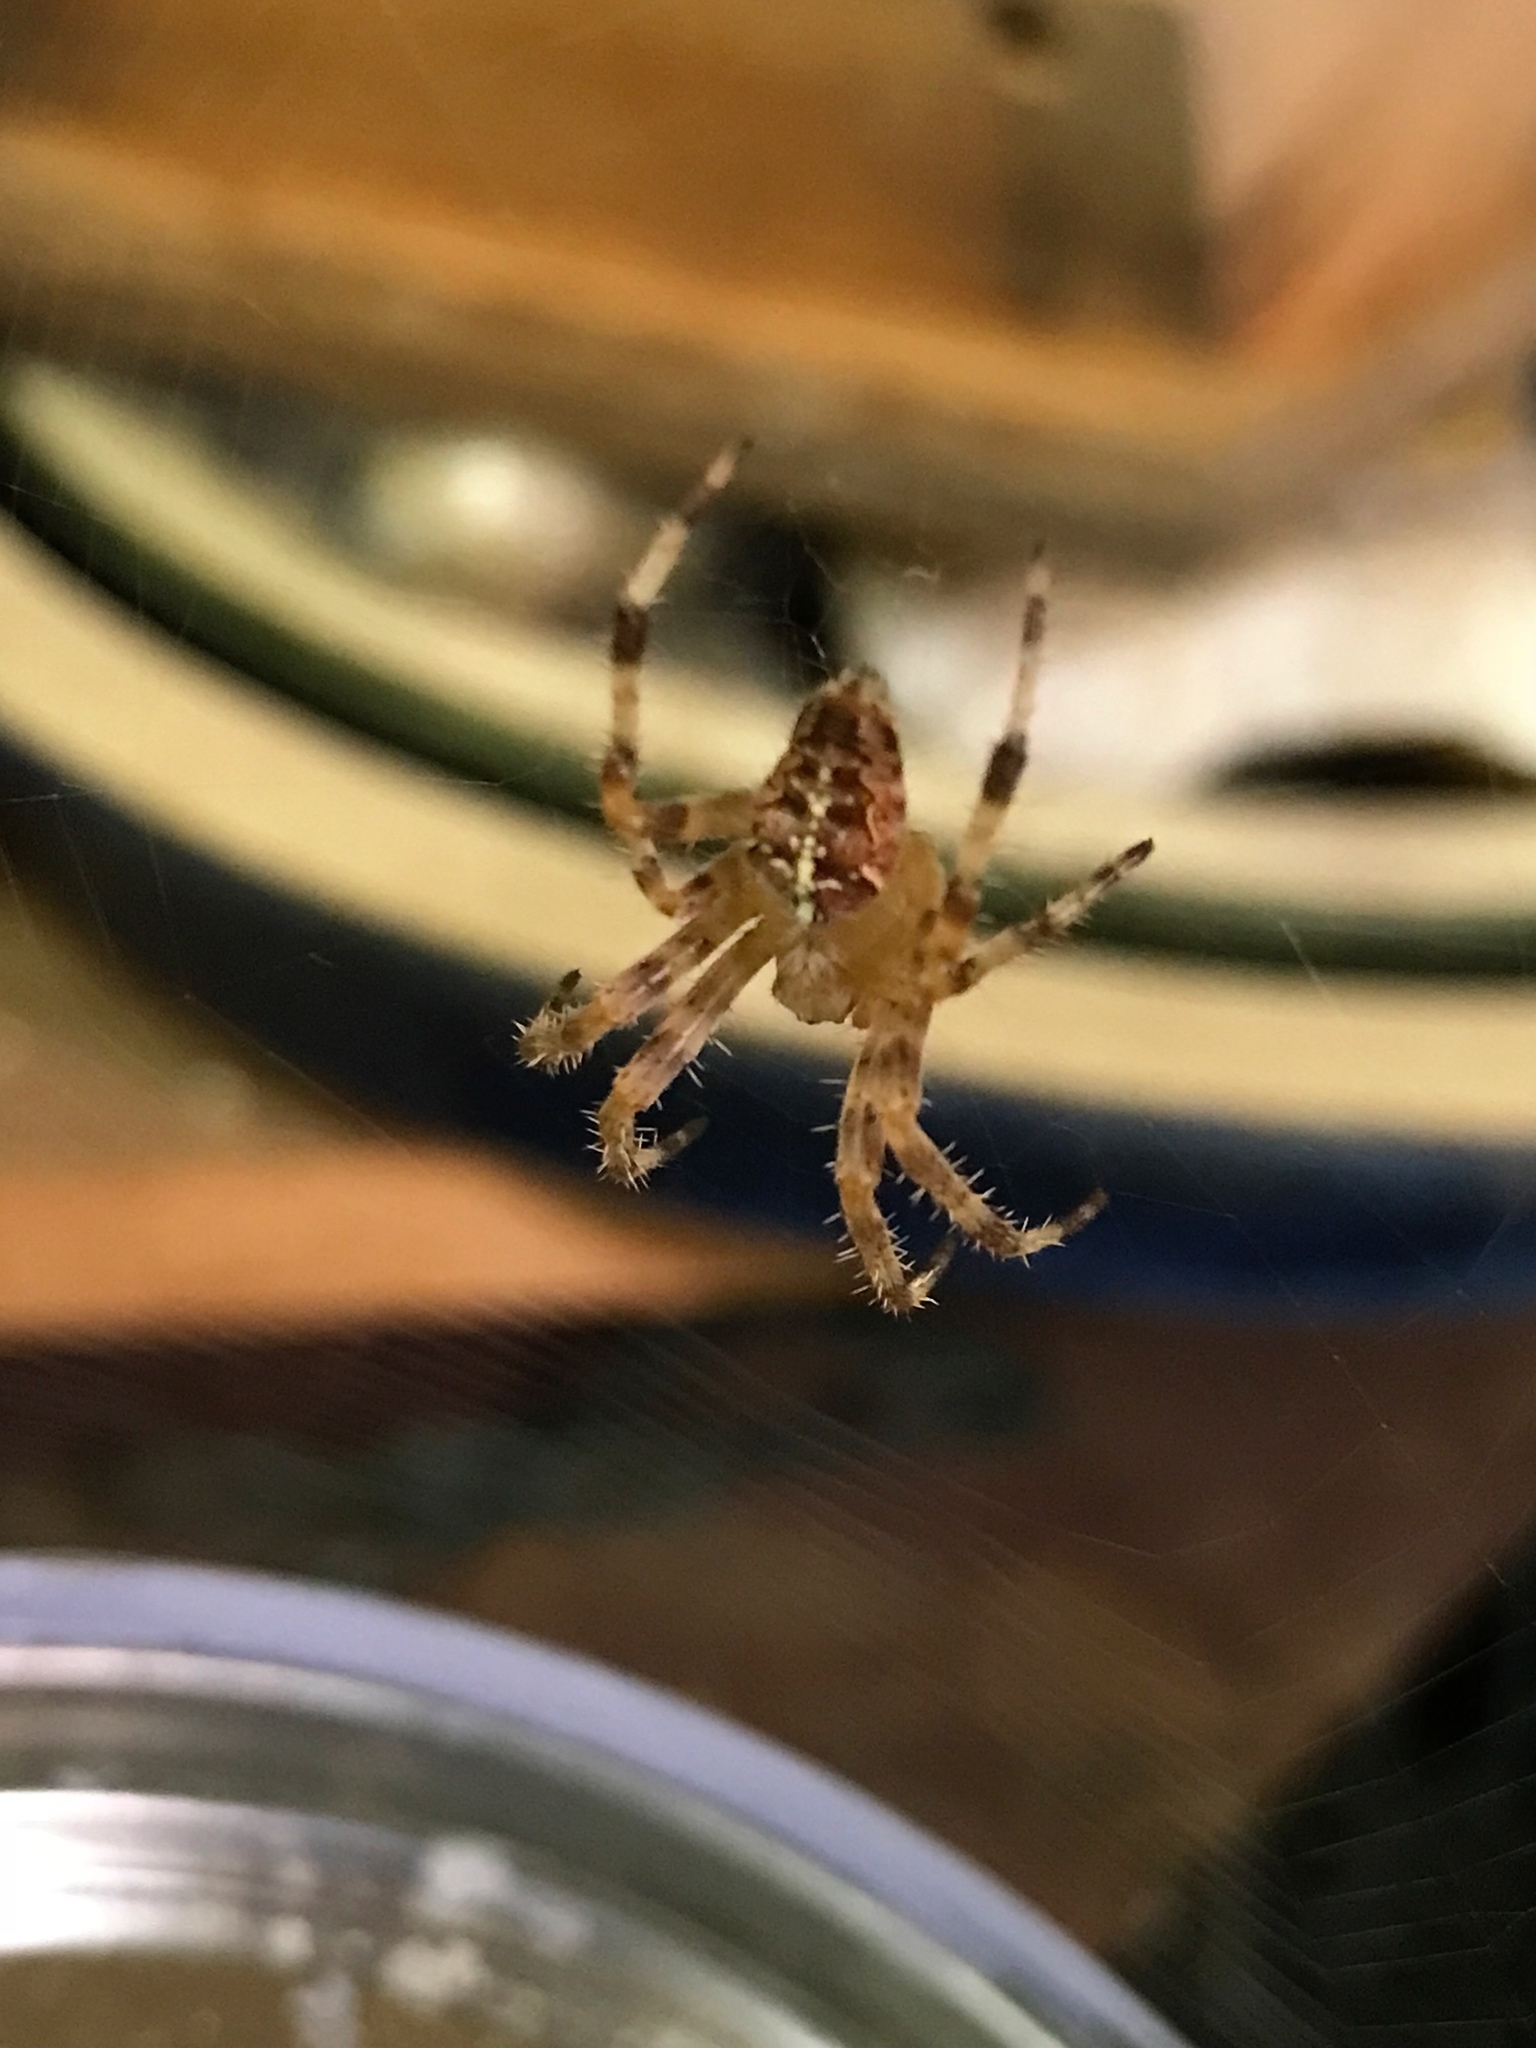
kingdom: Animalia
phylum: Arthropoda
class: Arachnida
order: Araneae
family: Araneidae
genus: Araneus
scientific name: Araneus diadematus
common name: Cross orbweaver
